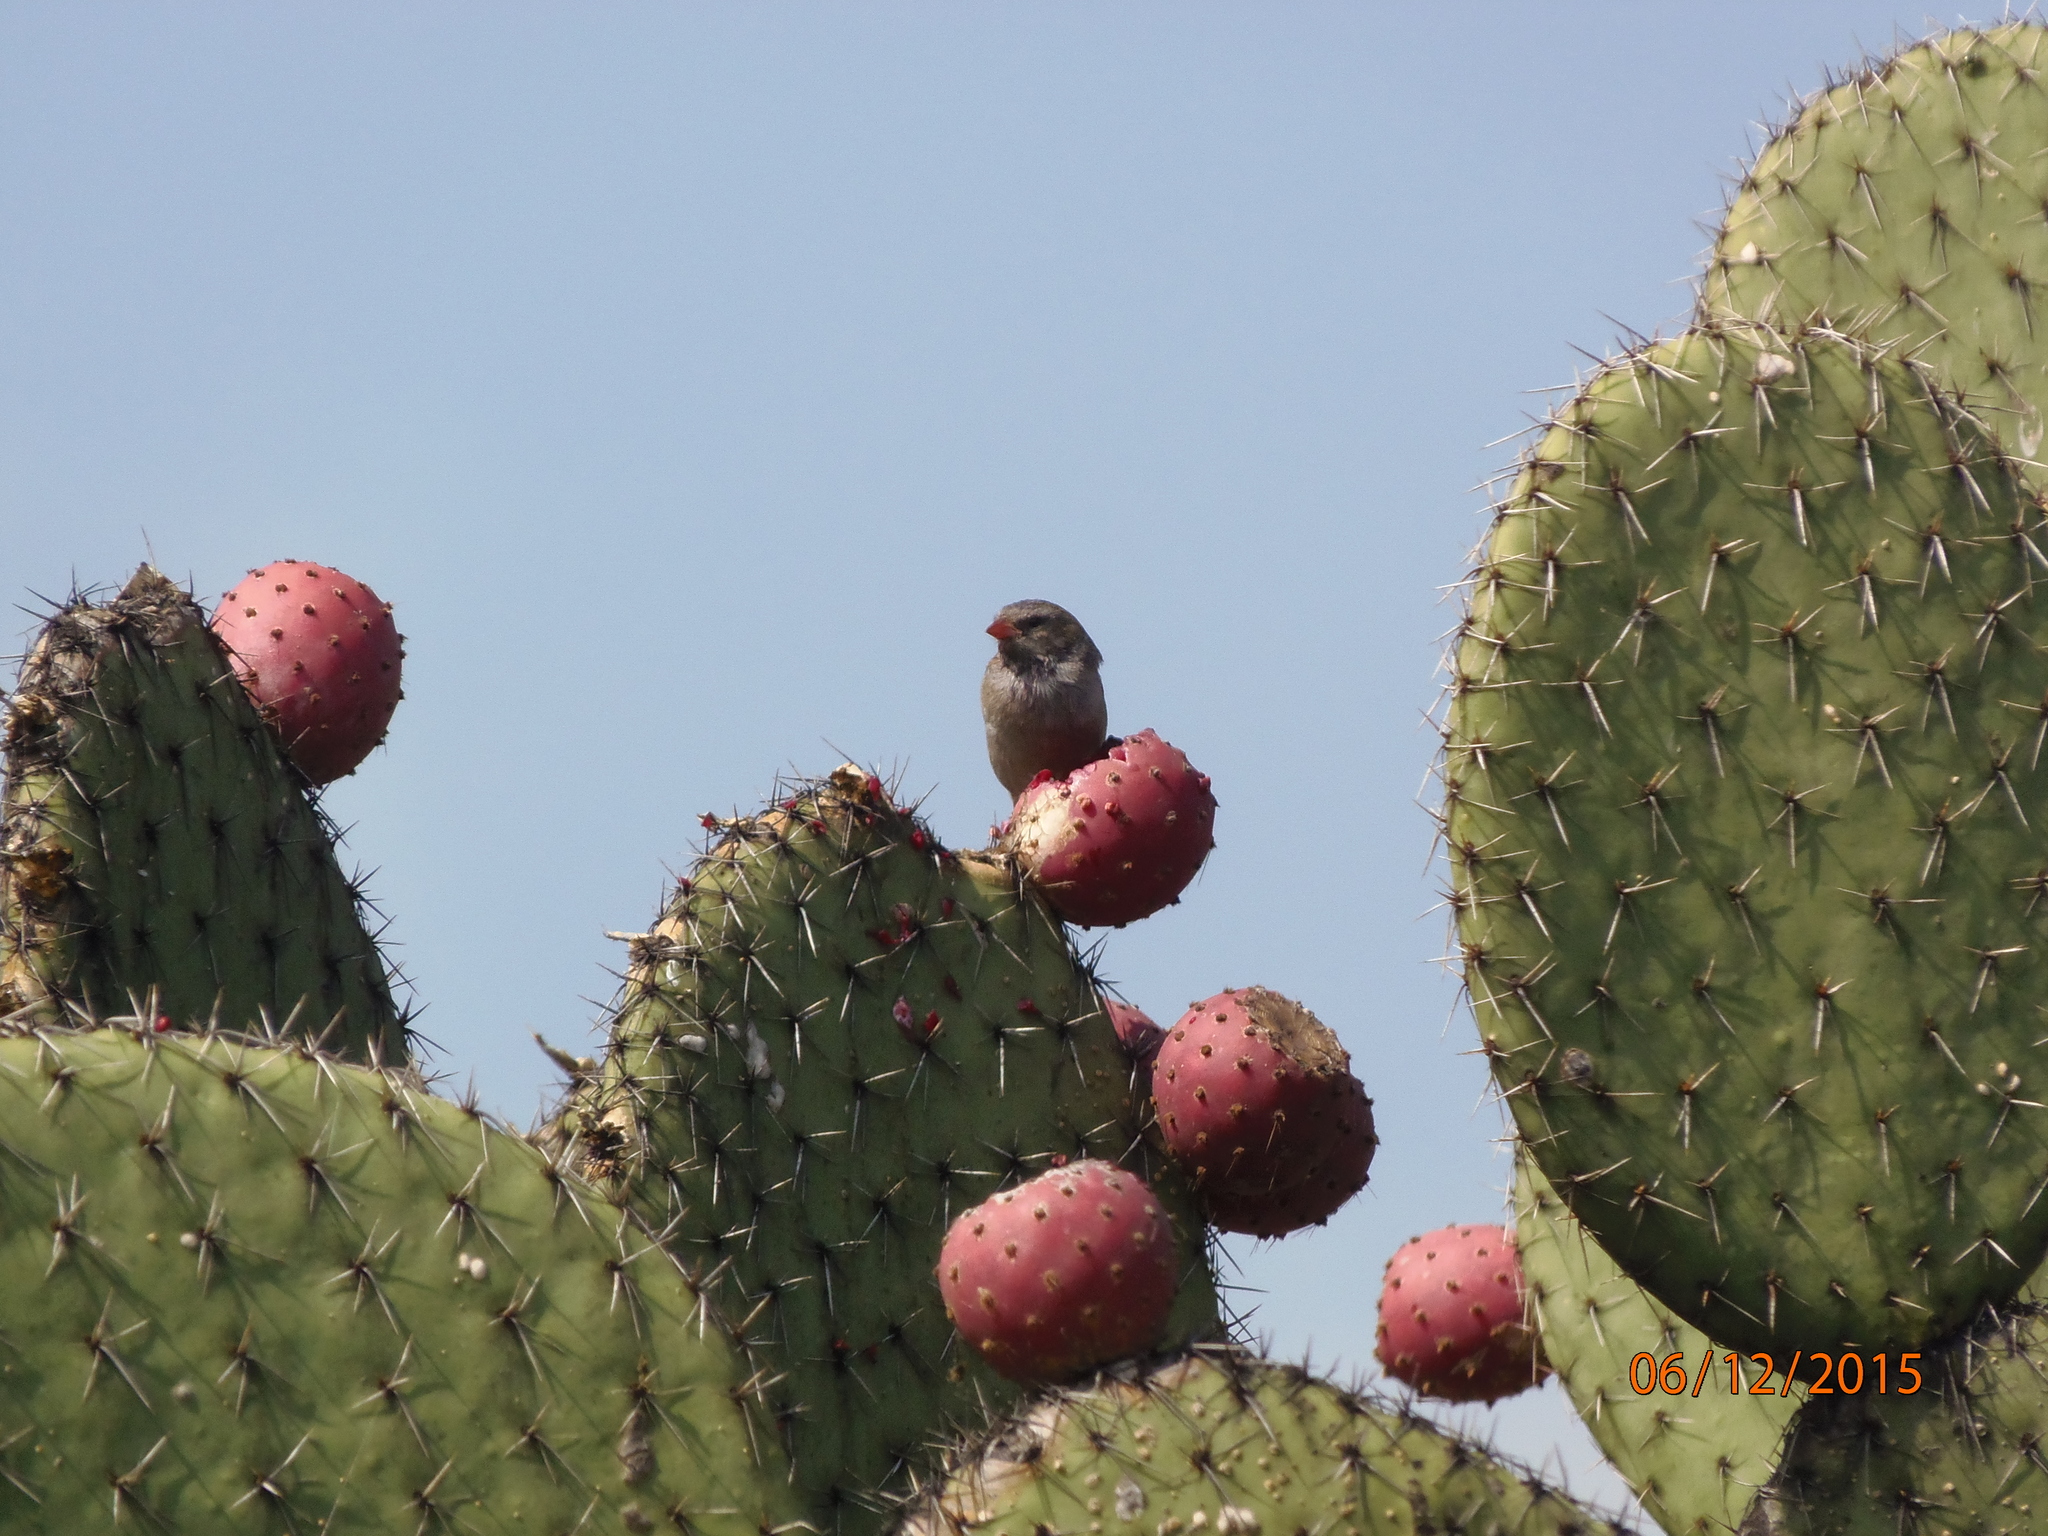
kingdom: Animalia
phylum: Chordata
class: Aves
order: Passeriformes
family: Passeridae
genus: Passer
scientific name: Passer domesticus
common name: House sparrow
